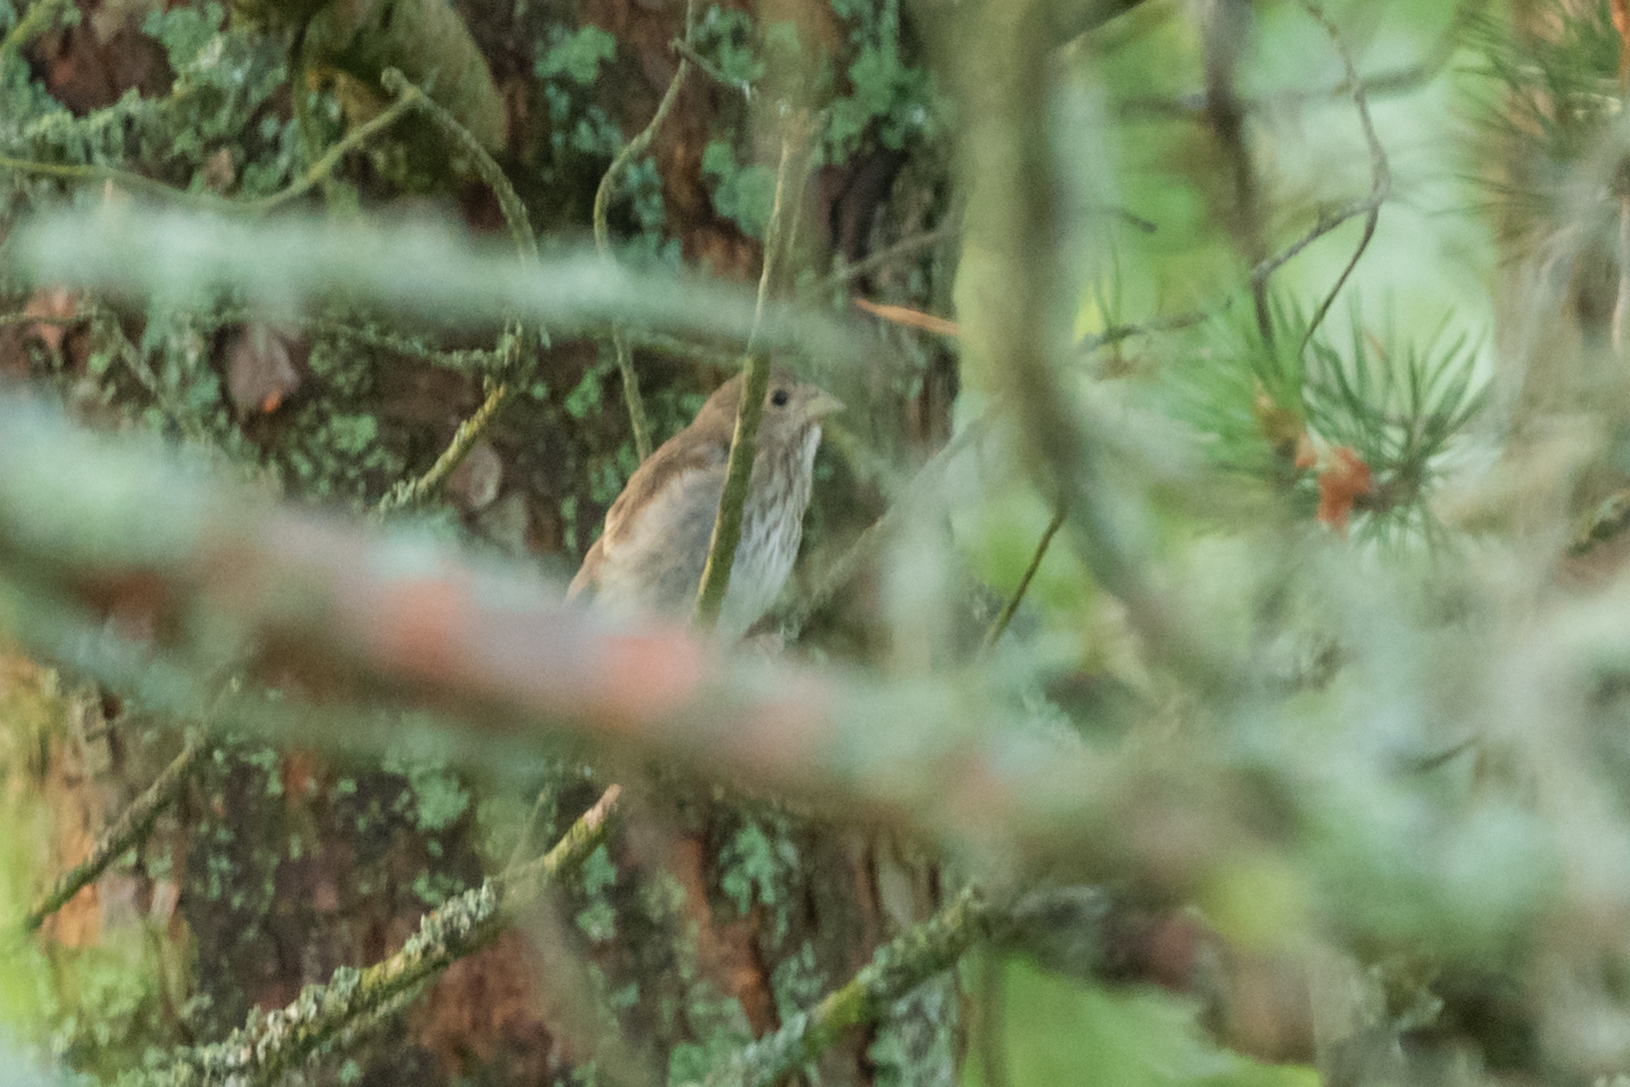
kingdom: Animalia
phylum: Chordata
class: Aves
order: Passeriformes
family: Fringillidae
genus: Carpodacus
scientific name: Carpodacus erythrinus
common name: Common rosefinch
